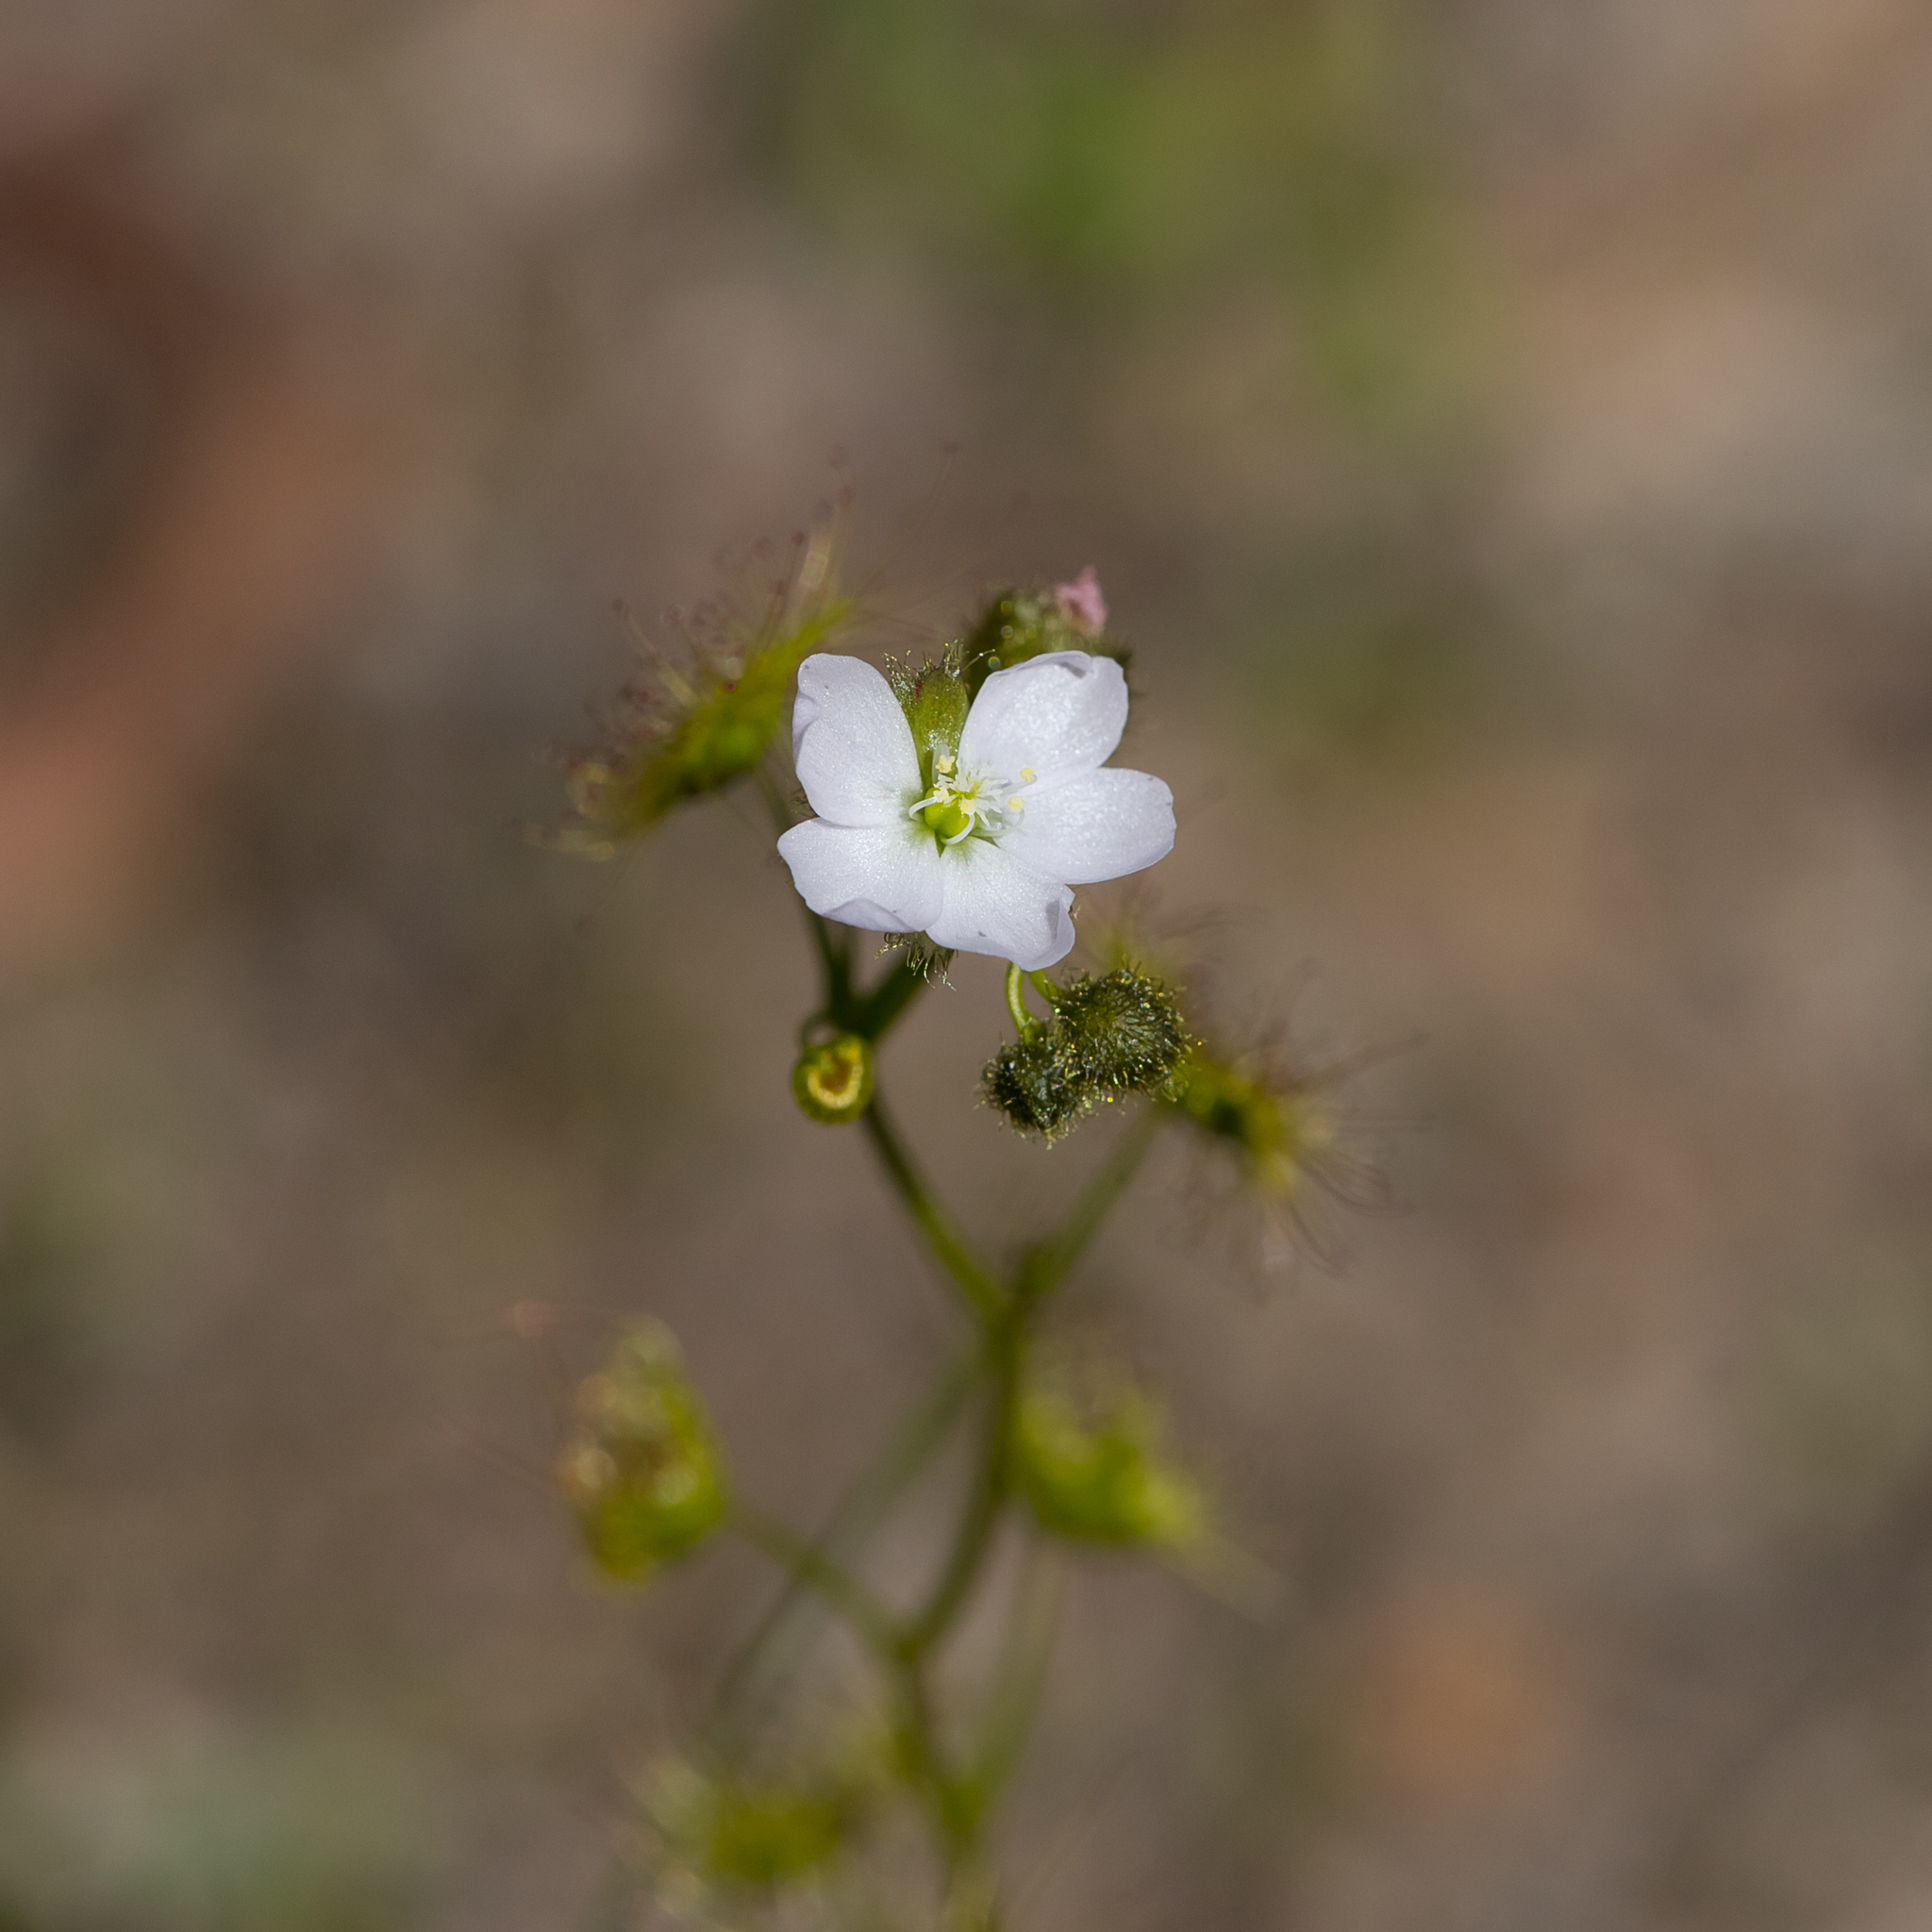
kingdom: Plantae
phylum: Tracheophyta
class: Magnoliopsida
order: Caryophyllales
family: Droseraceae
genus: Drosera
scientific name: Drosera gunniana
